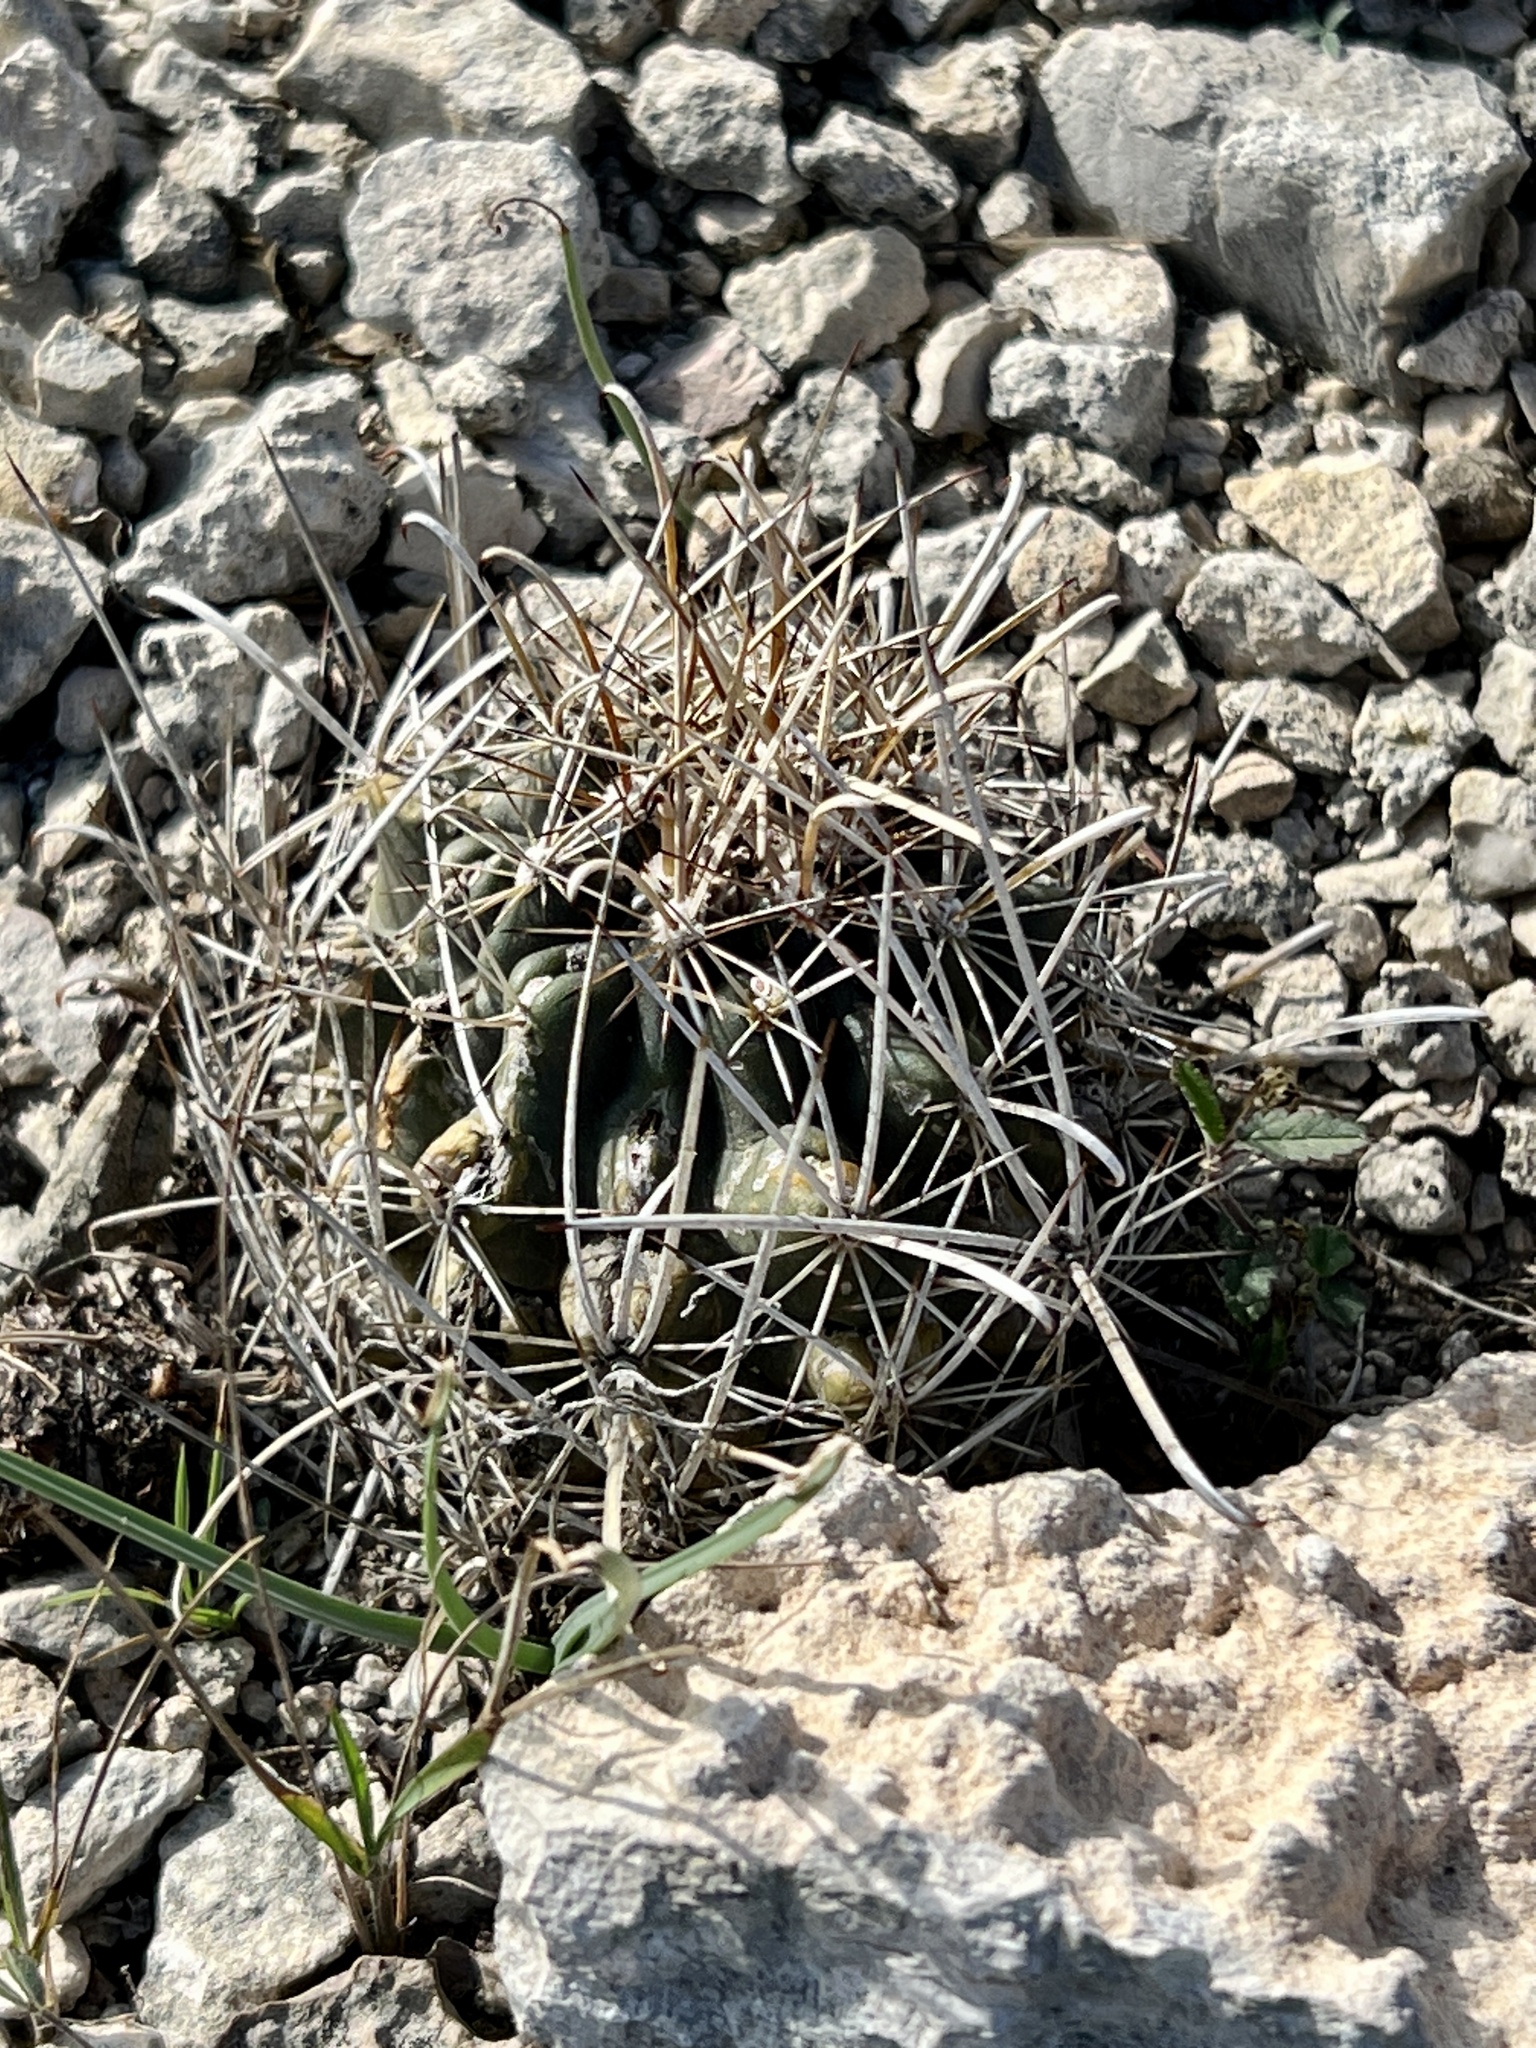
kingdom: Plantae
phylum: Tracheophyta
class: Magnoliopsida
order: Caryophyllales
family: Cactaceae
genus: Sclerocactus
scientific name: Sclerocactus brevihamatus
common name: Engelmann's fishhook cactus
